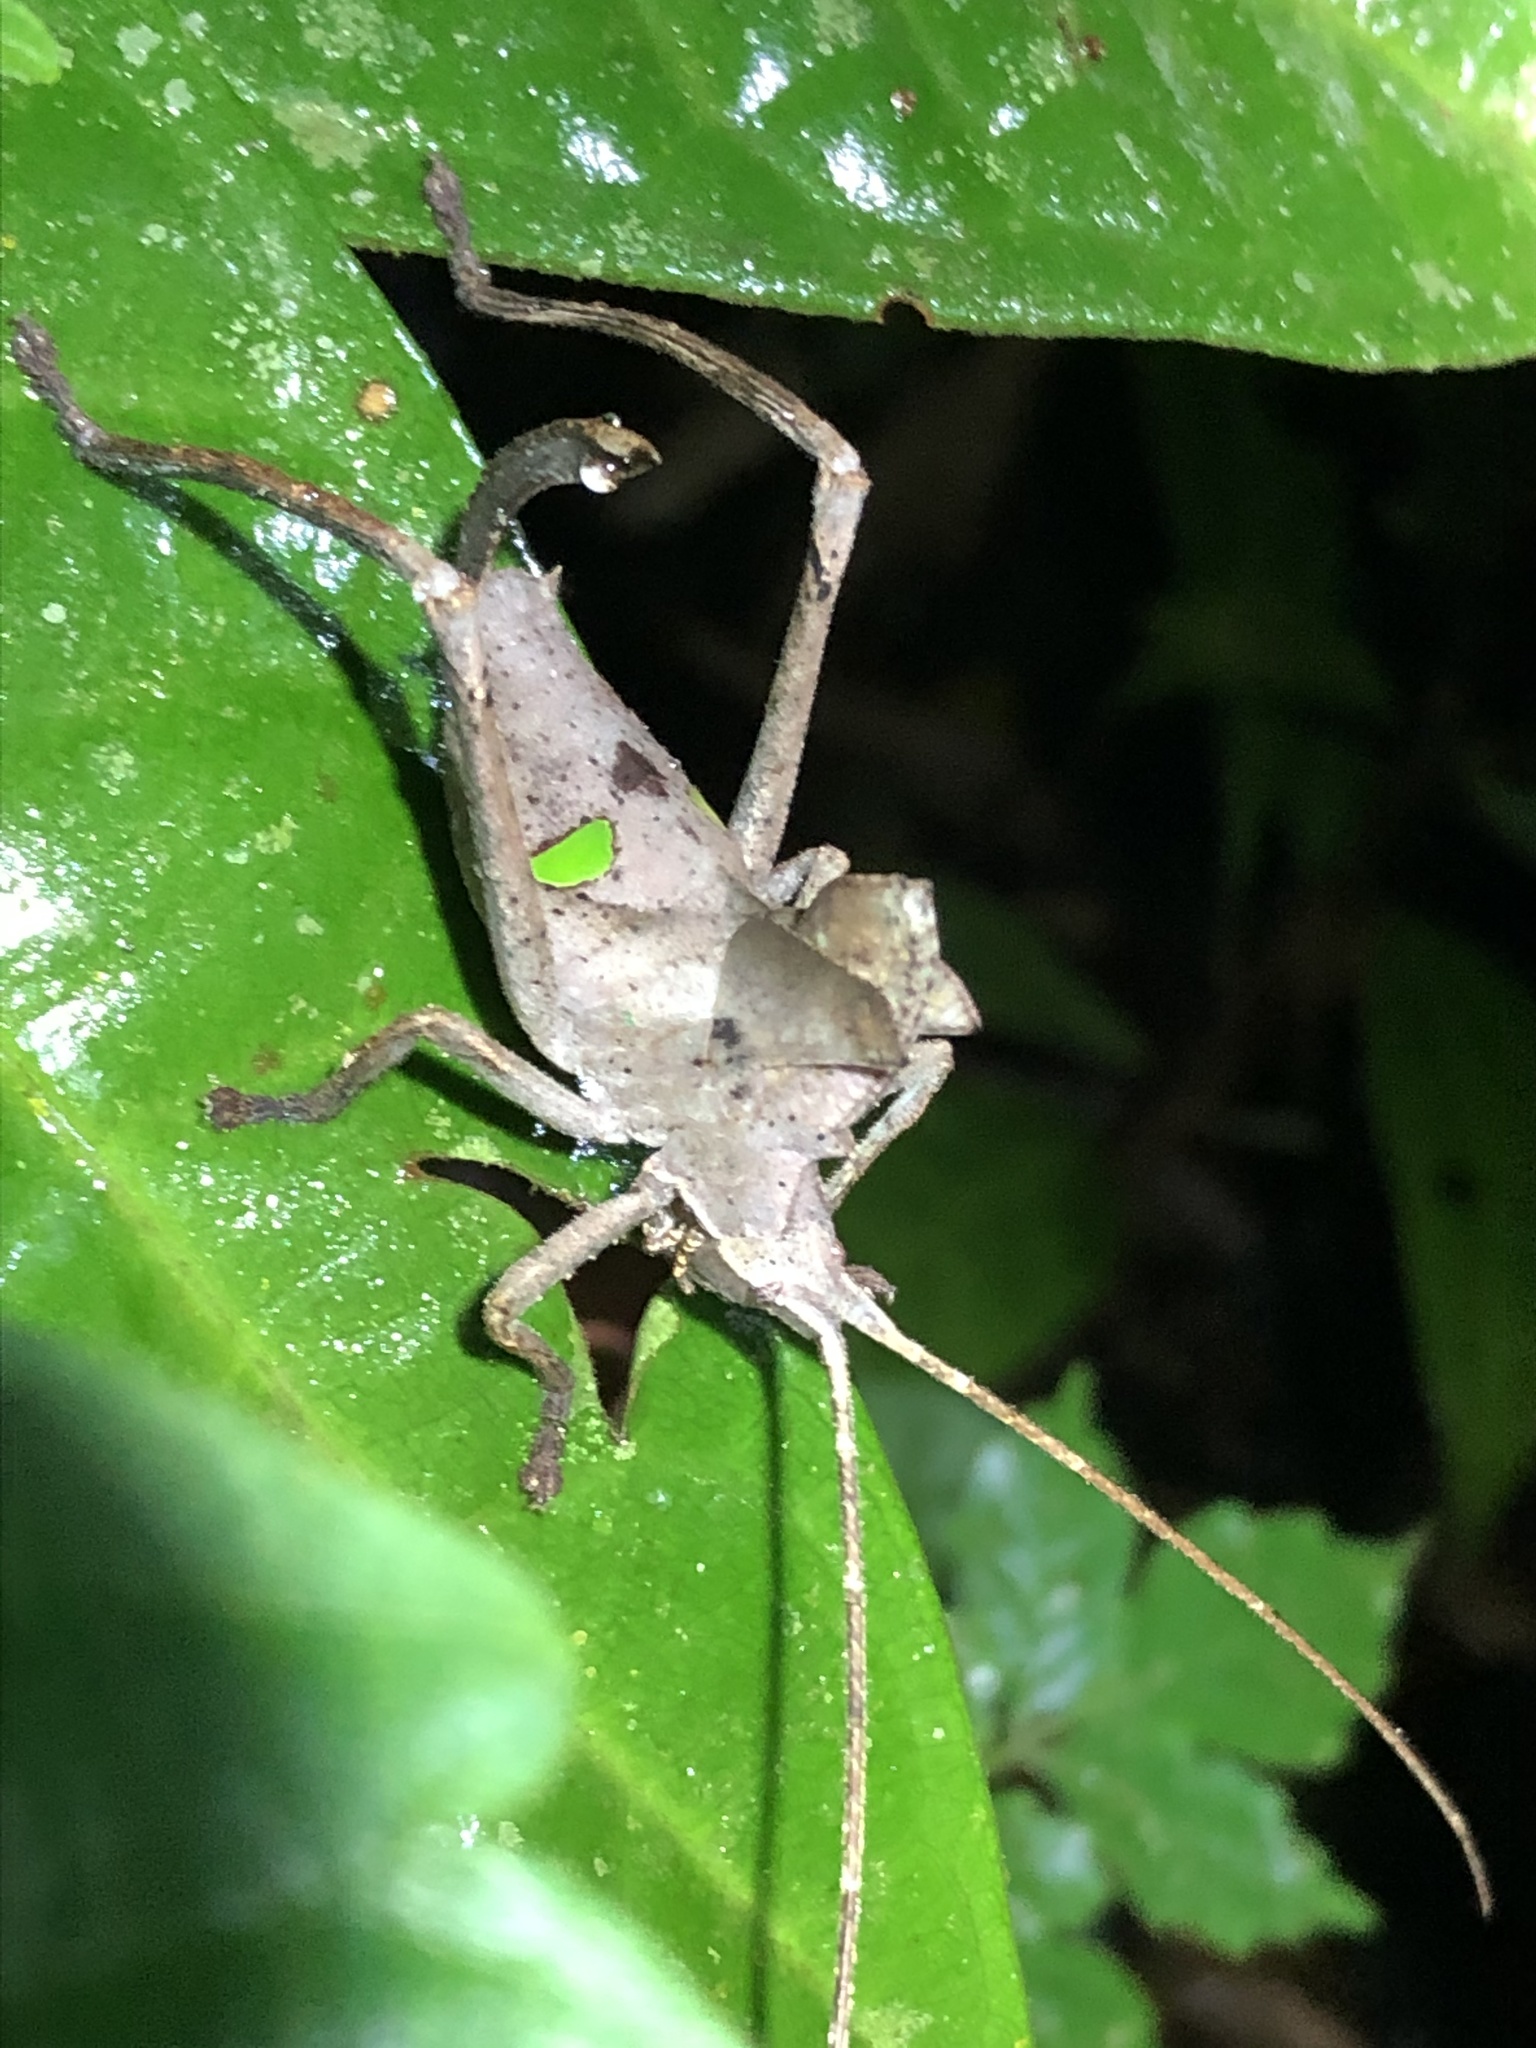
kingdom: Animalia
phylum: Arthropoda
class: Insecta
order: Orthoptera
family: Tettigoniidae
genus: Pterochroza
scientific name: Pterochroza ocellata
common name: Peacock katydid
